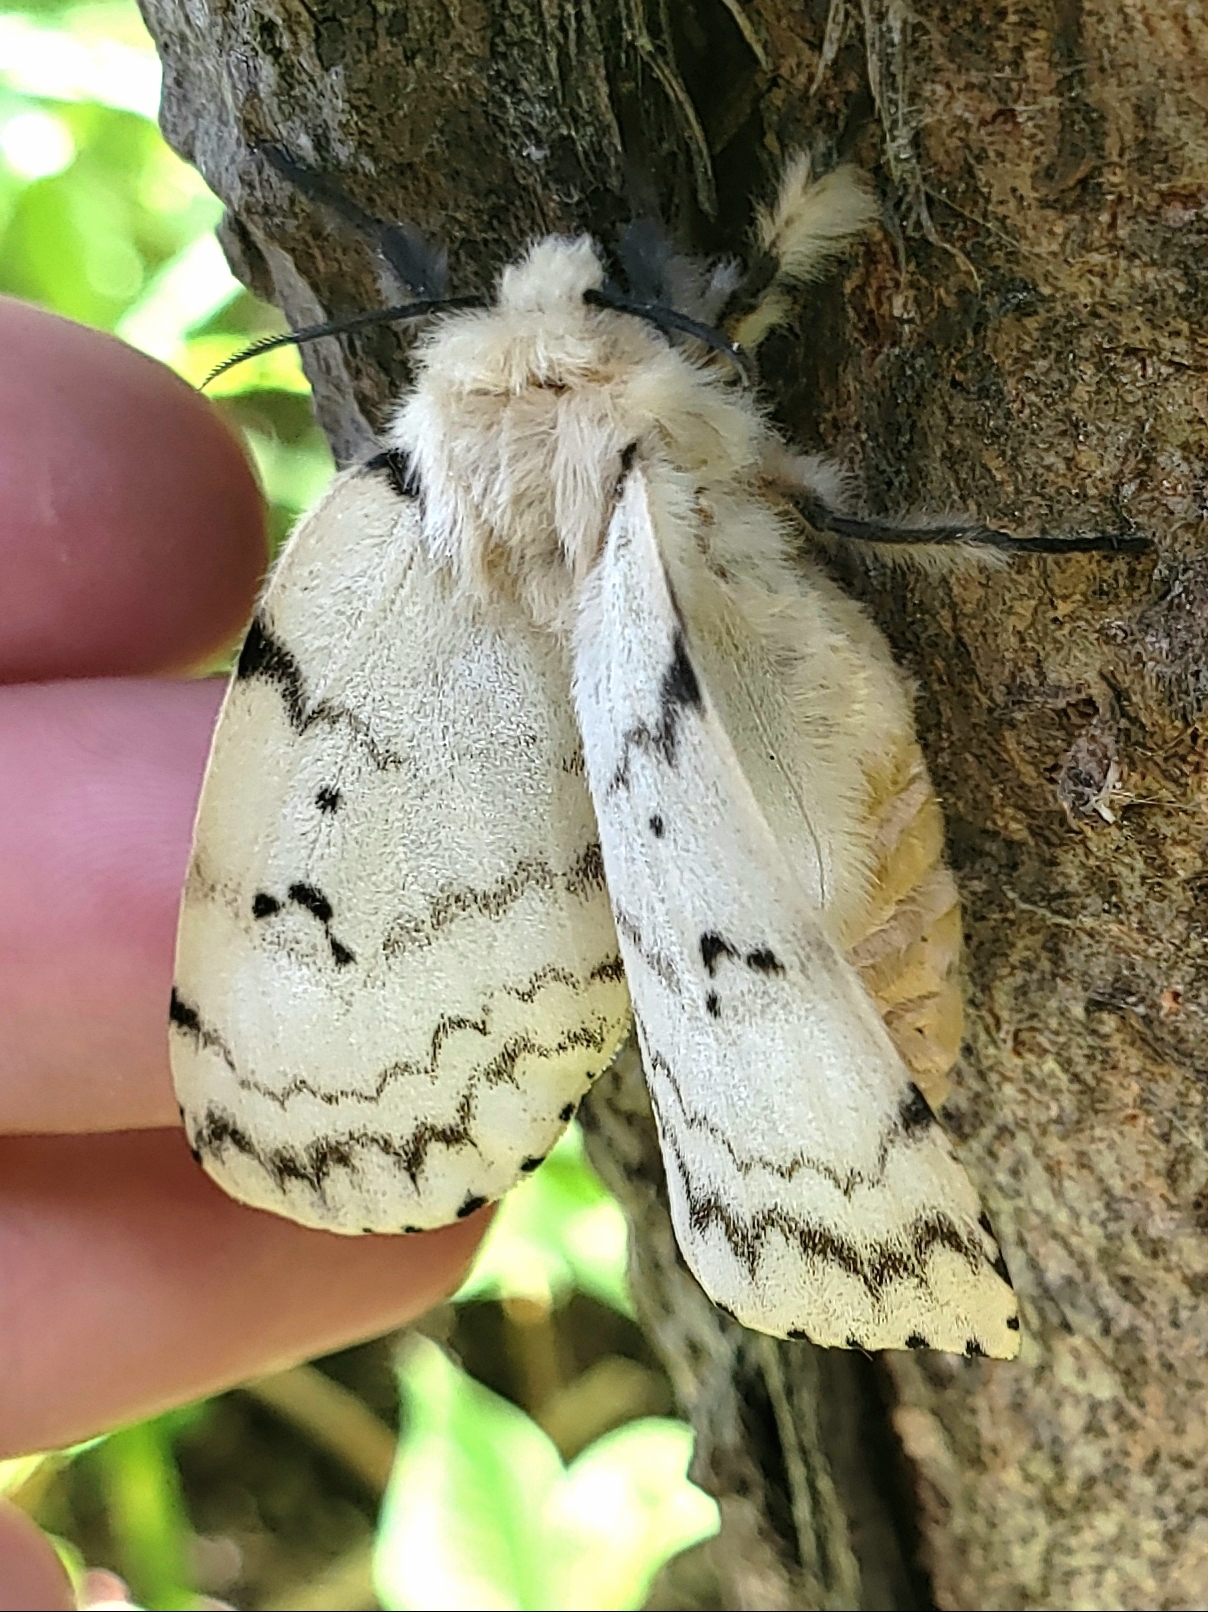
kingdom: Animalia
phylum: Arthropoda
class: Insecta
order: Lepidoptera
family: Erebidae
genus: Lymantria
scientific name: Lymantria dispar
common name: Gypsy moth
